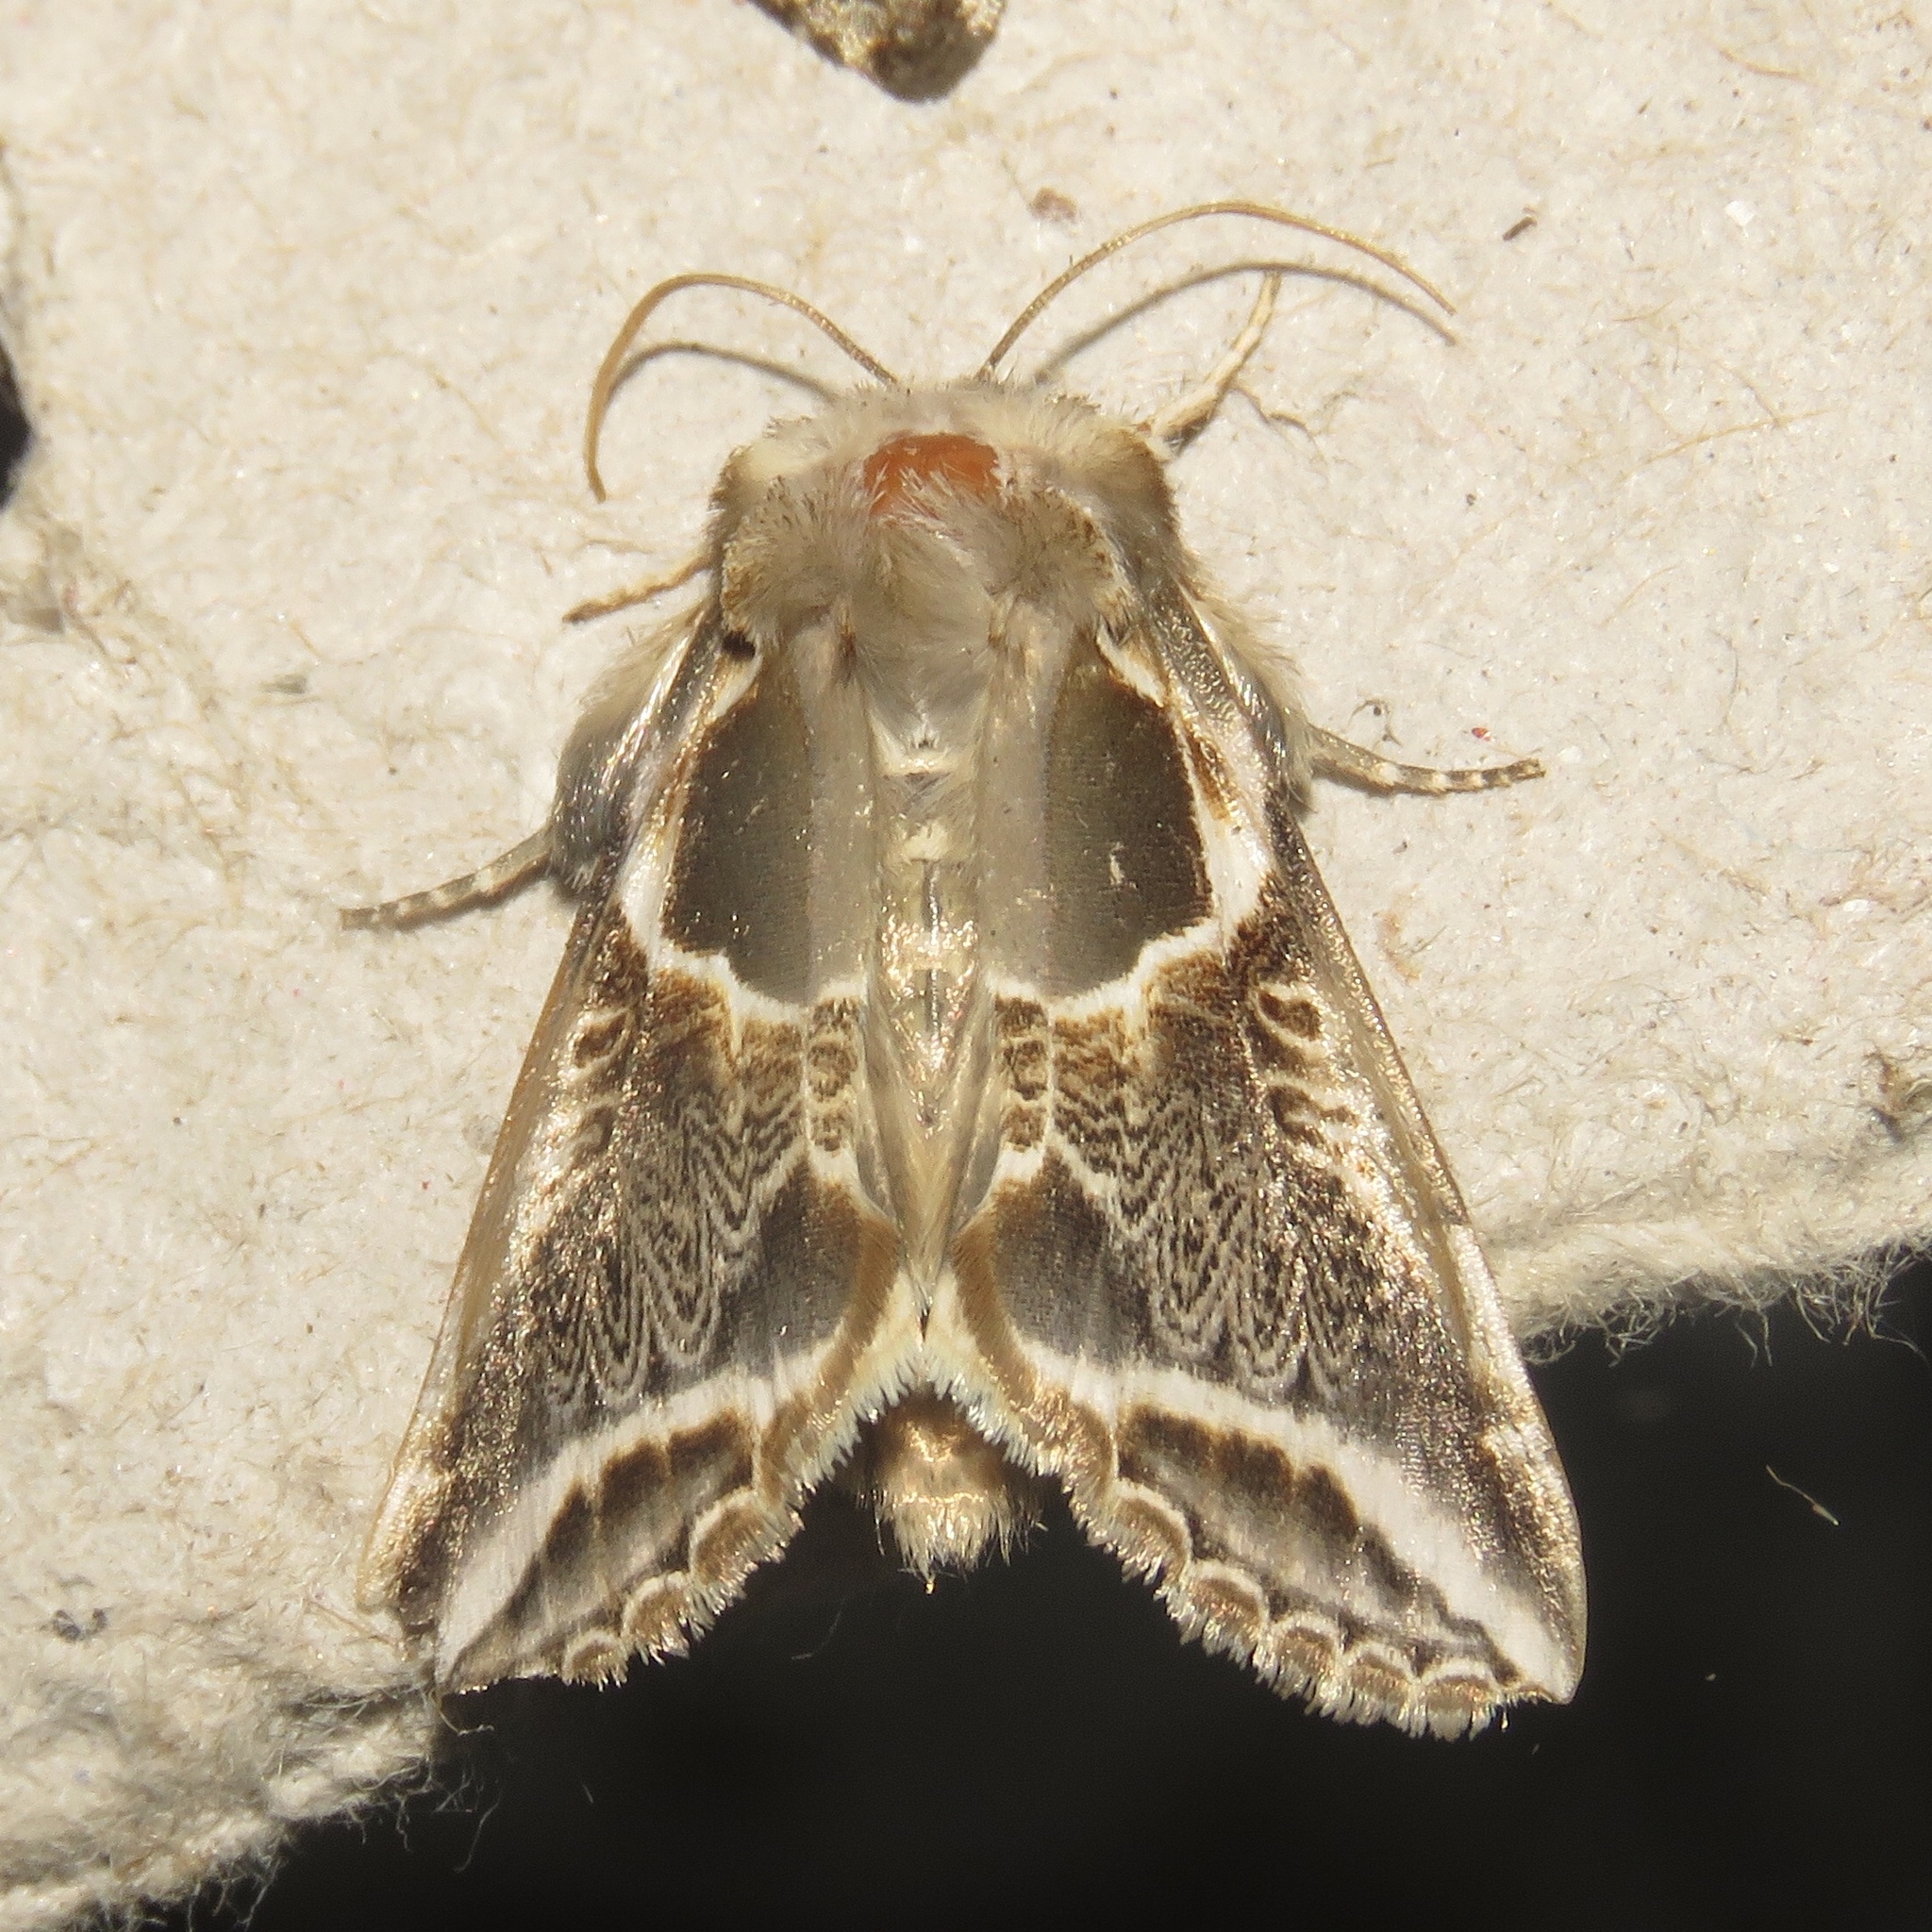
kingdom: Animalia
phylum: Arthropoda
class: Insecta
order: Lepidoptera
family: Drepanidae
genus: Habrosyne
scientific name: Habrosyne scripta
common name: Lettered habrosyne moth
